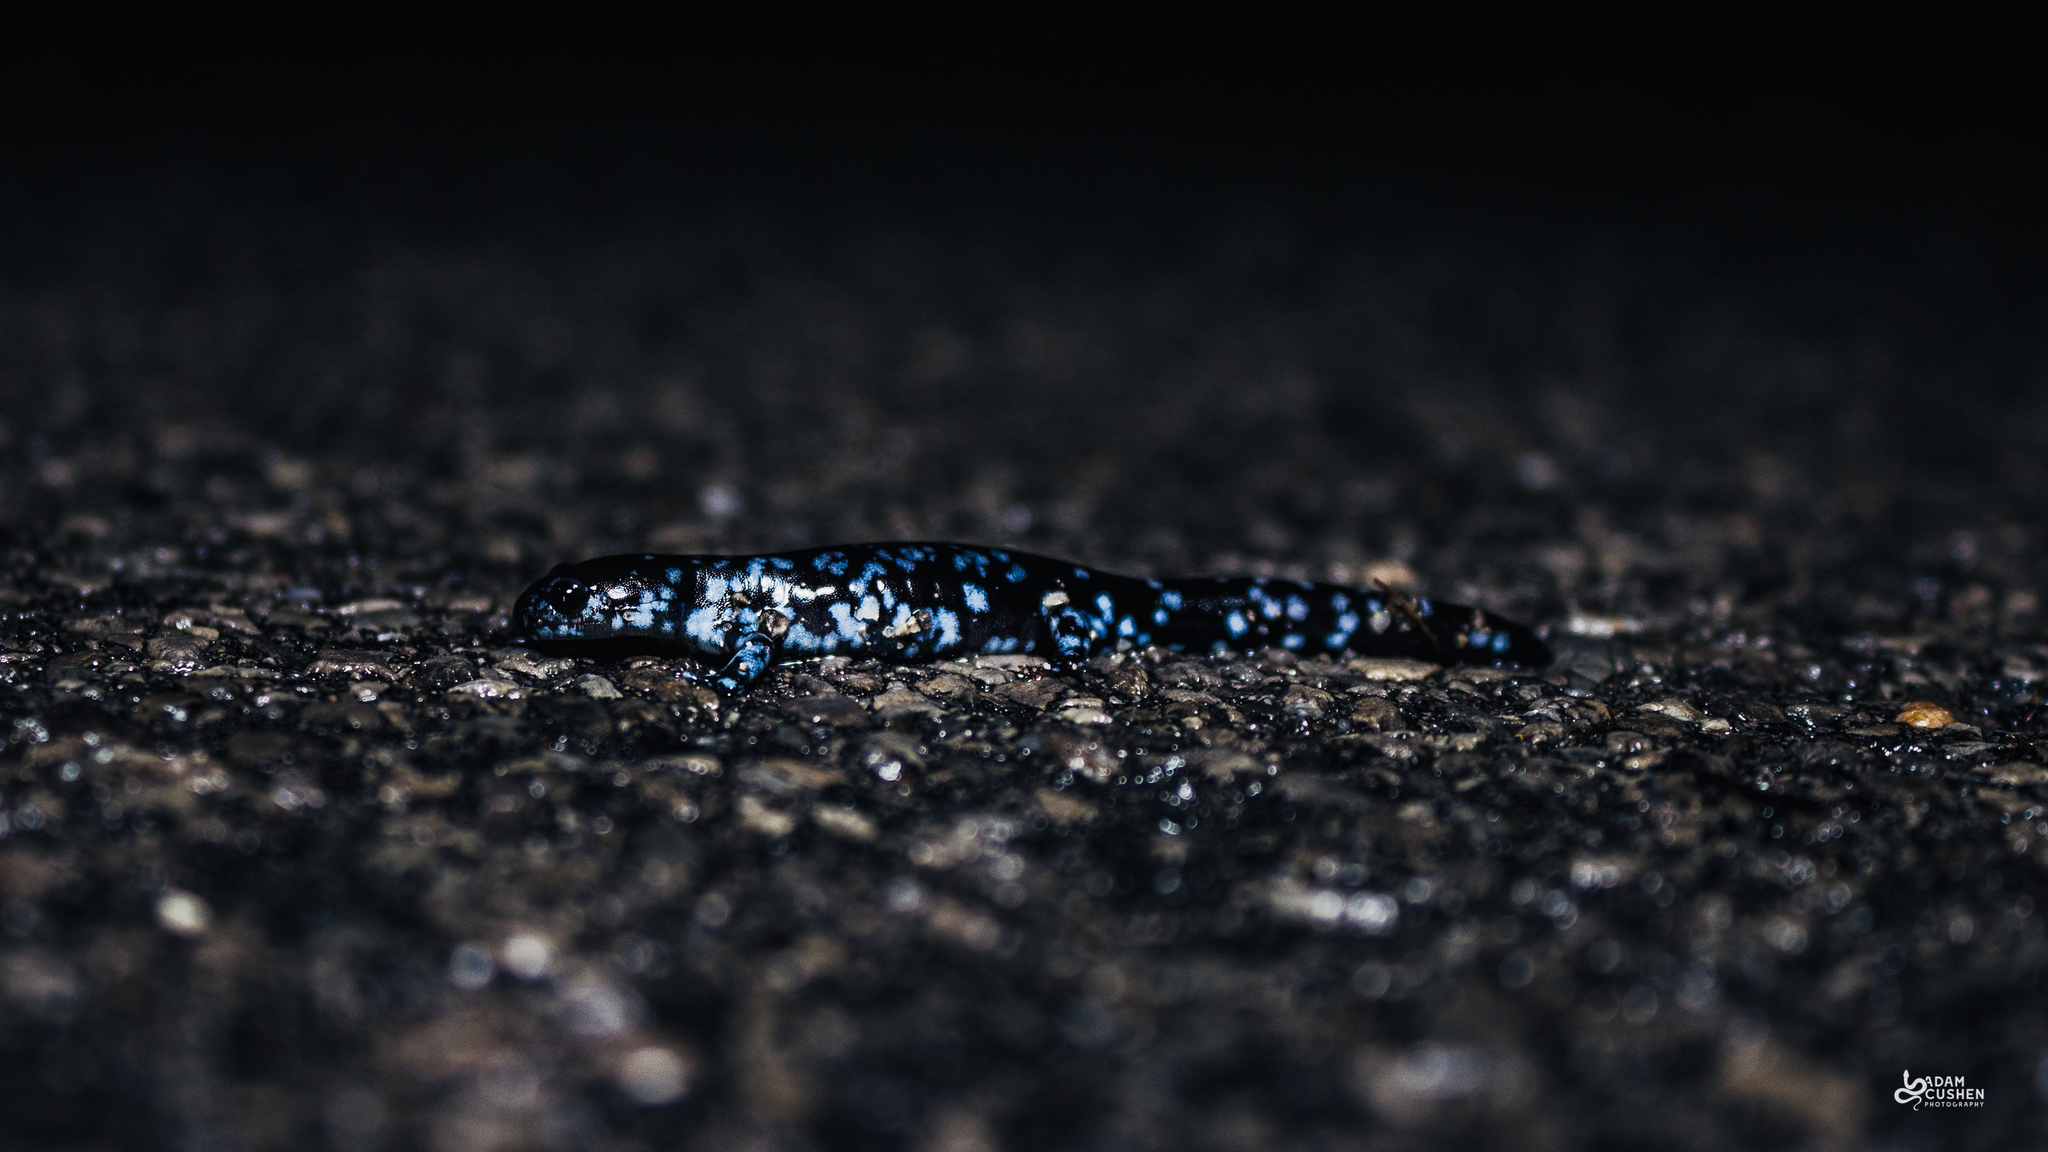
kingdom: Animalia
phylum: Chordata
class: Amphibia
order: Caudata
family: Ambystomatidae
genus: Ambystoma
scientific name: Ambystoma laterale
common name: Blue-spotted salamander
